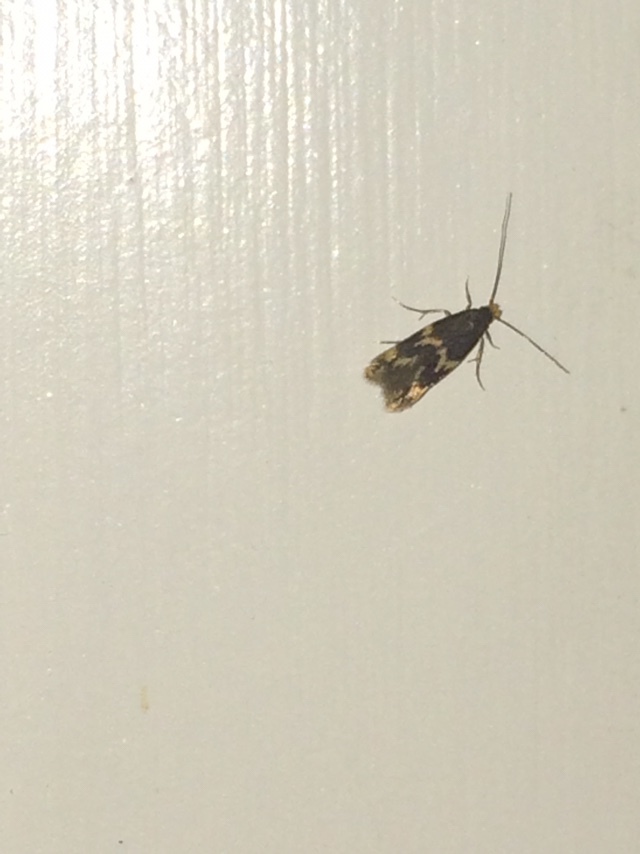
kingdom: Animalia
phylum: Arthropoda
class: Insecta
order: Lepidoptera
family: Tineidae
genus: Oinophila
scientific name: Oinophila v-flava
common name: Yellow v moth
